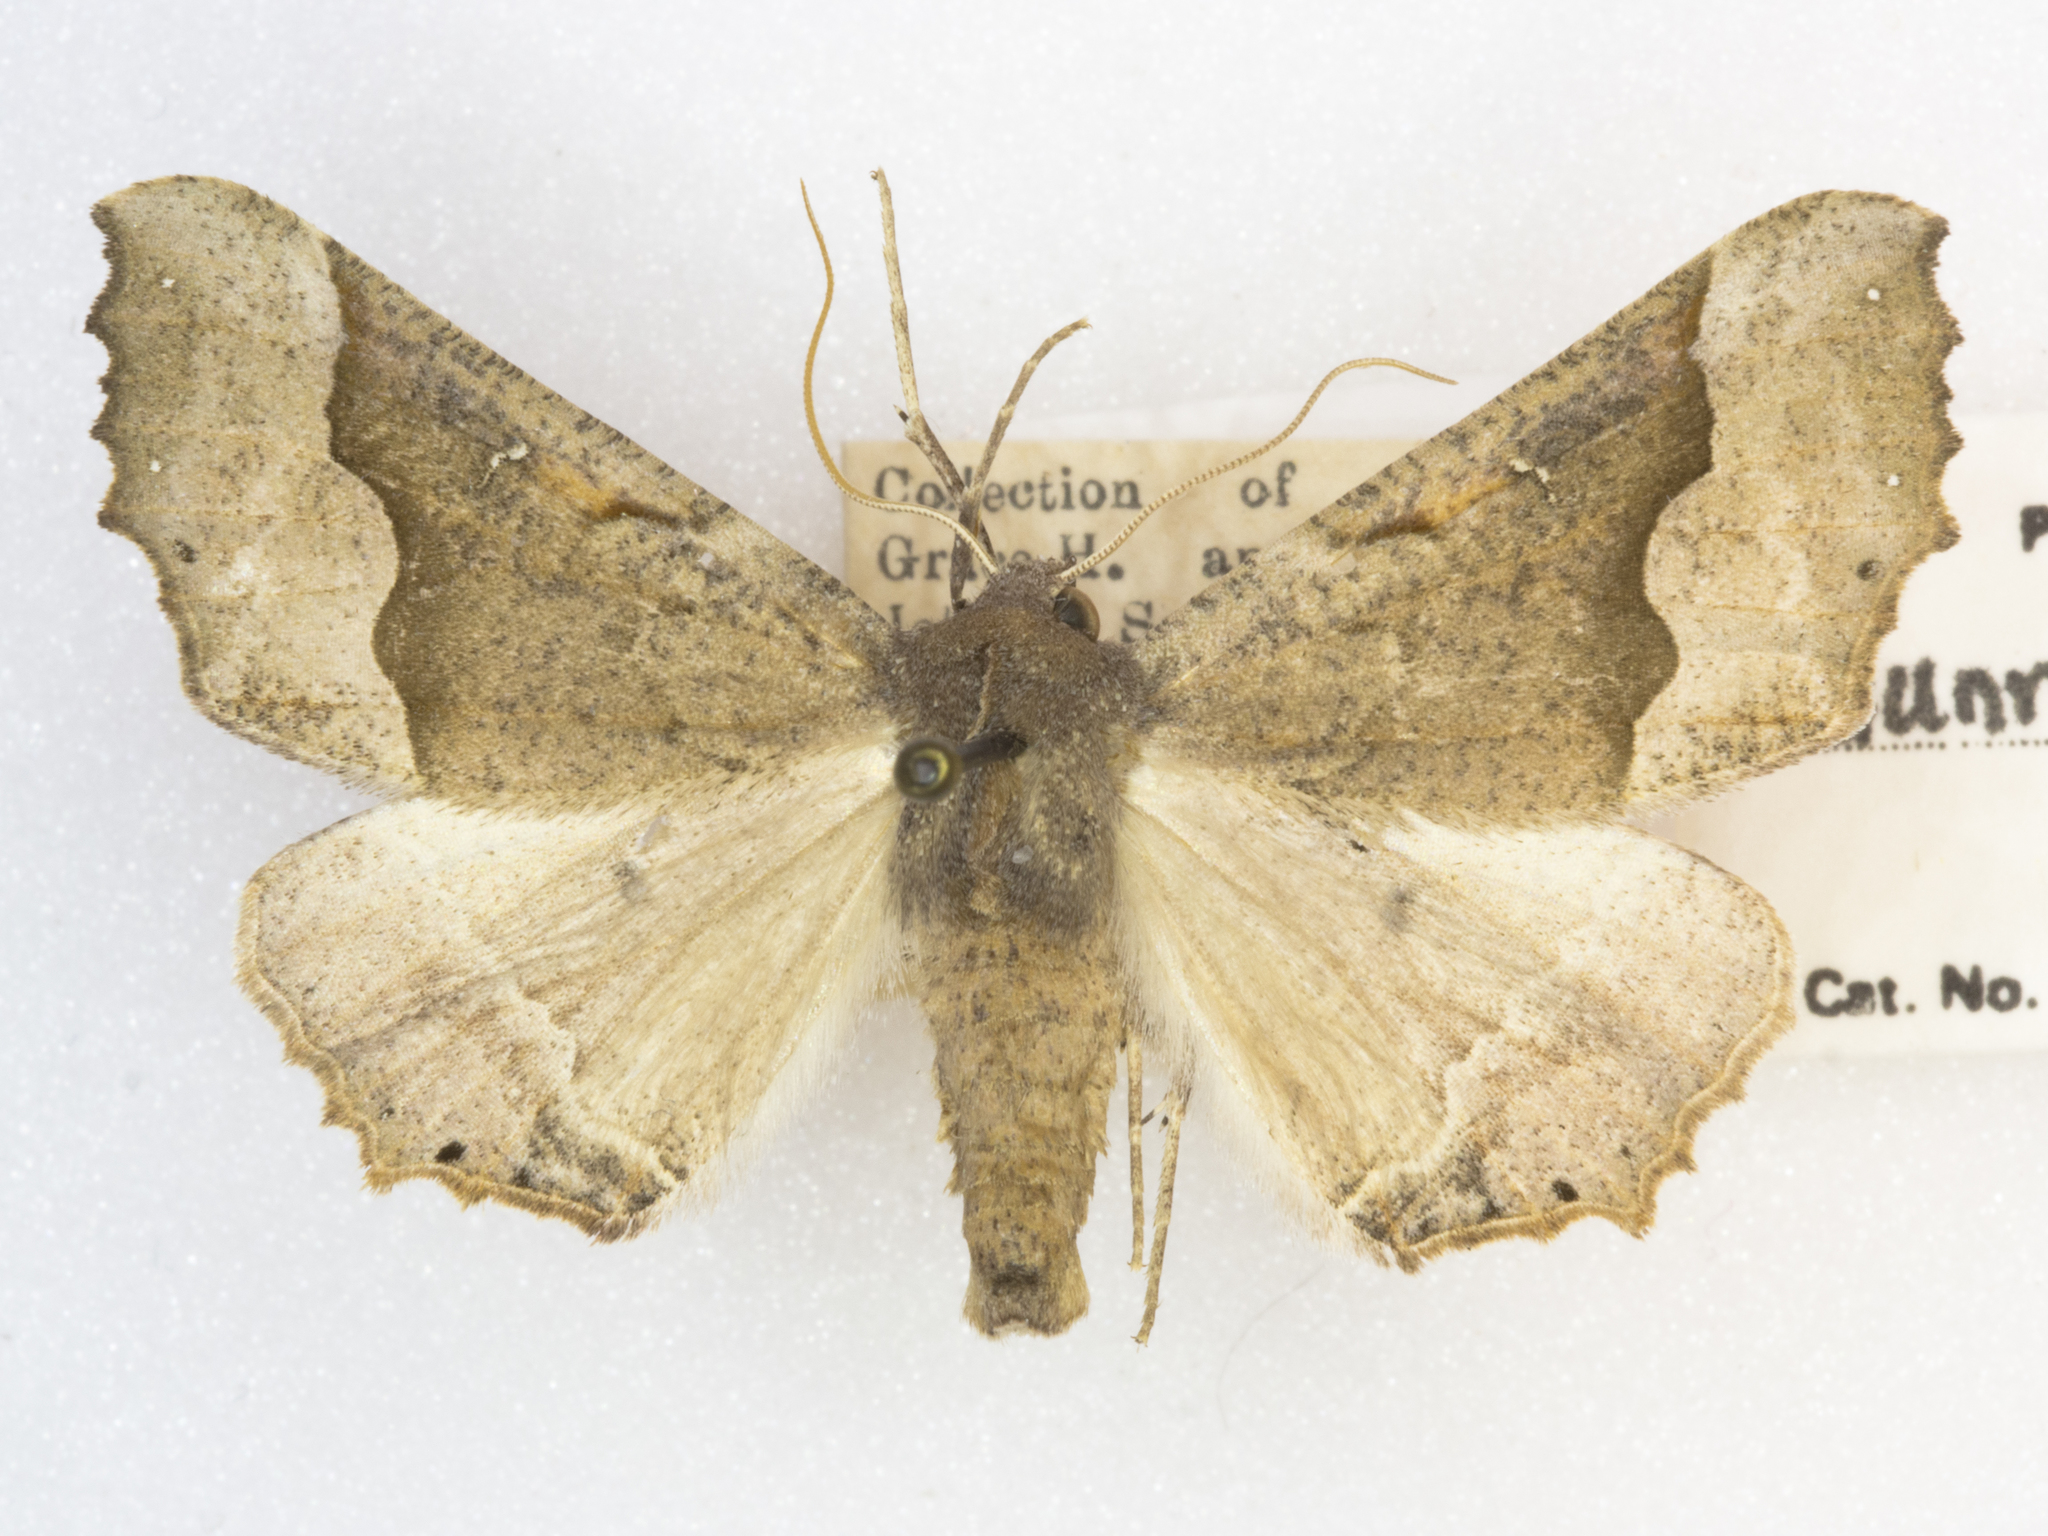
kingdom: Animalia
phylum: Arthropoda
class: Insecta
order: Lepidoptera
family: Geometridae
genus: Pero
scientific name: Pero macdunnoughi
